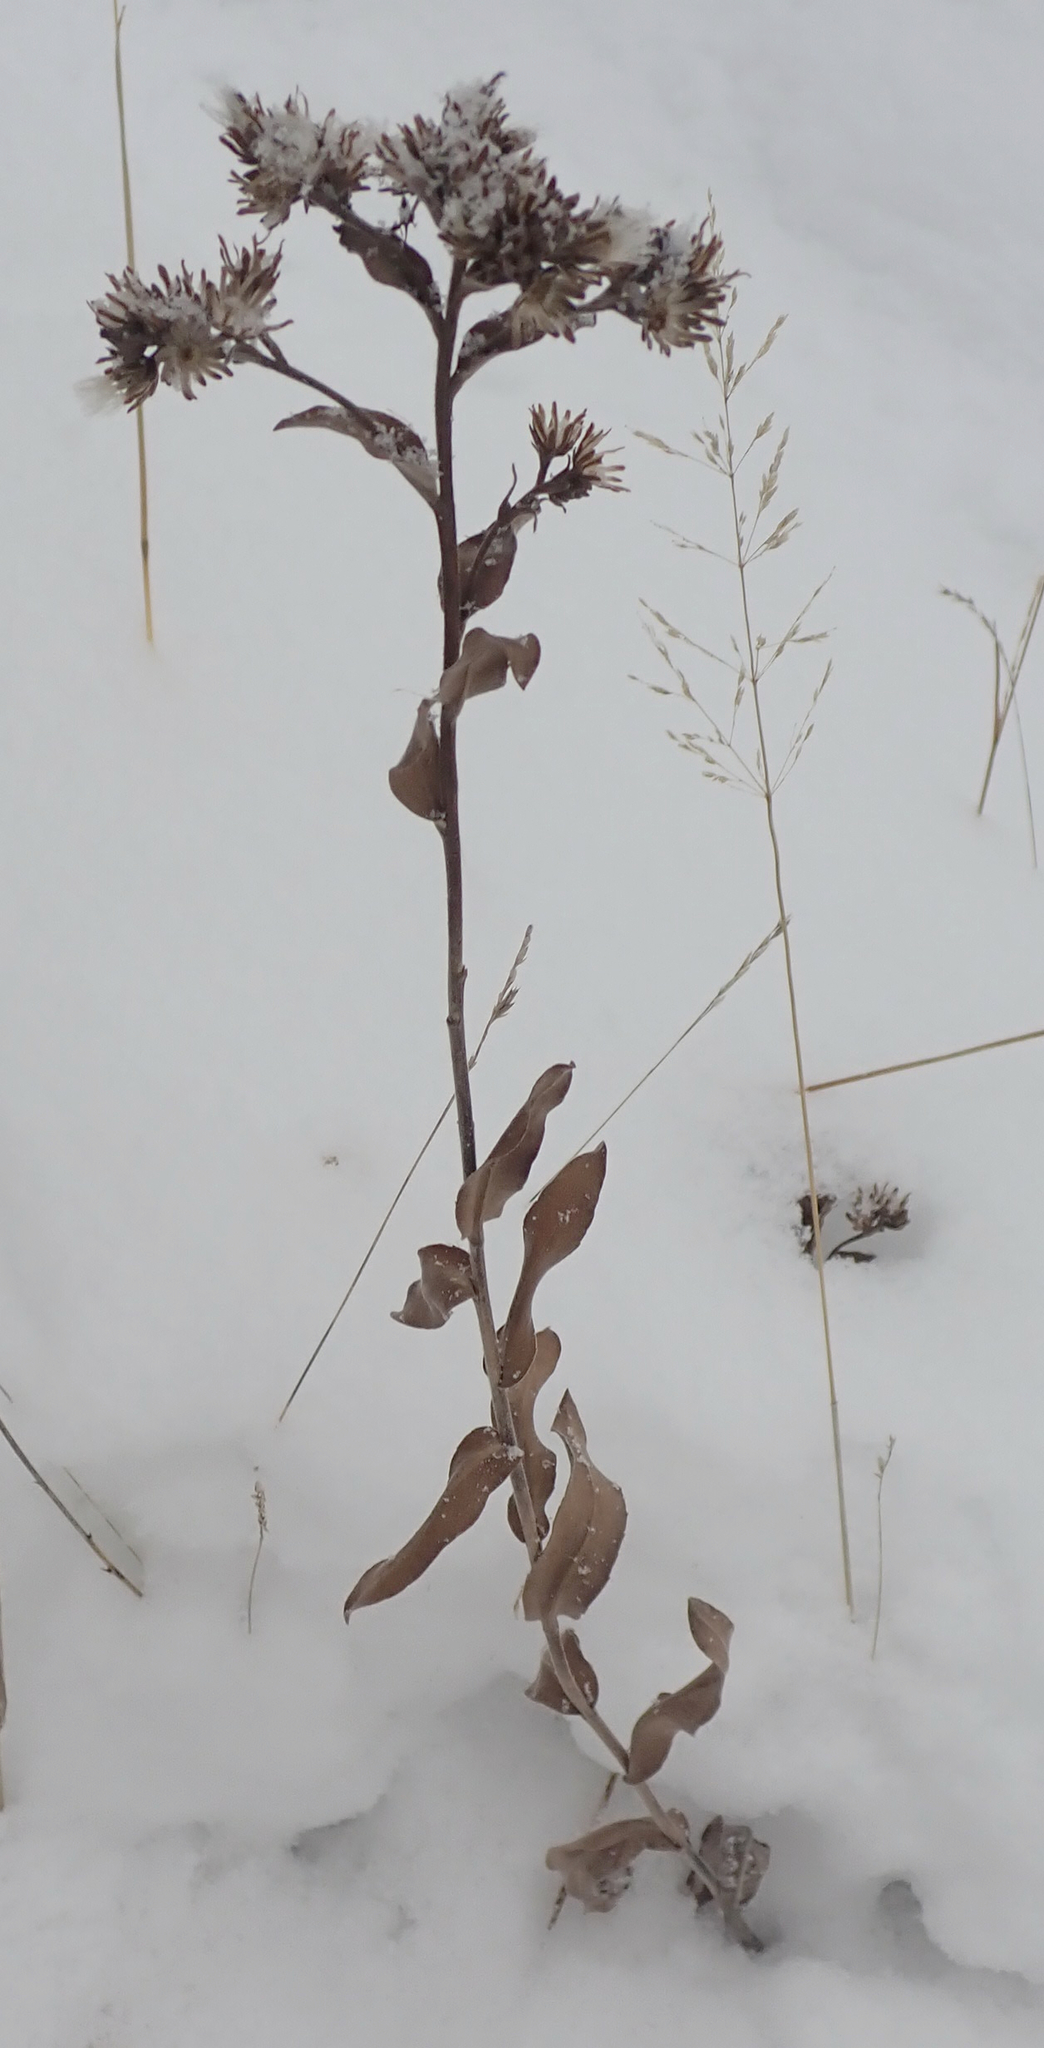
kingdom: Plantae
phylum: Tracheophyta
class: Magnoliopsida
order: Asterales
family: Asteraceae
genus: Solidago
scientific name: Solidago rigida
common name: Rigid goldenrod
